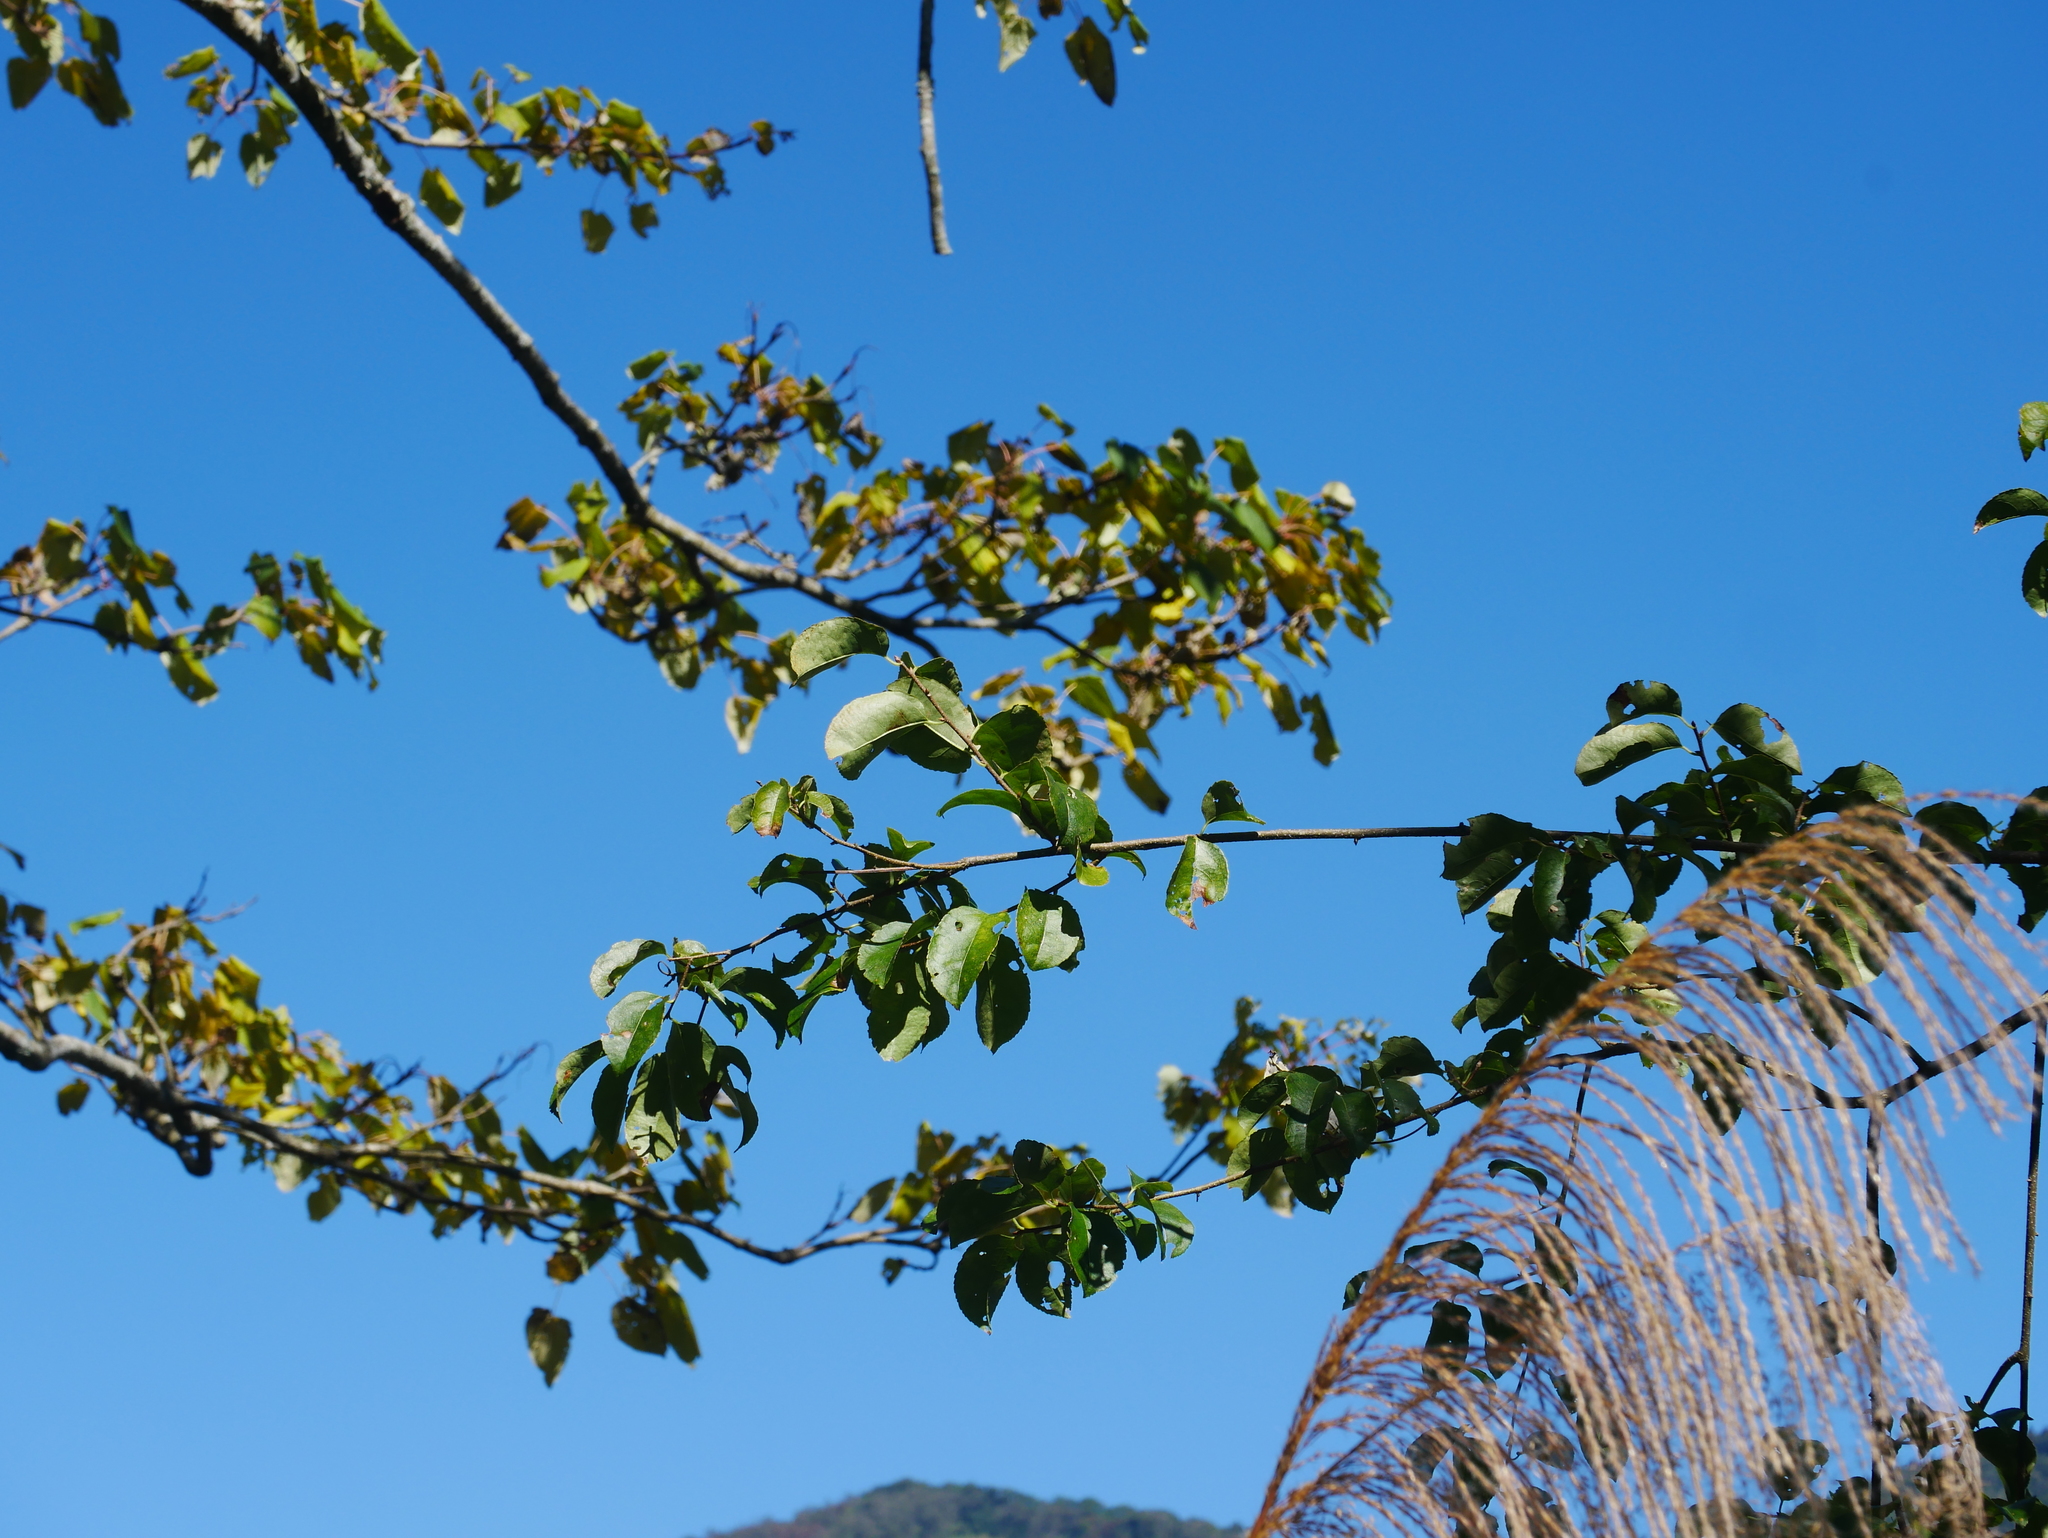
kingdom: Plantae
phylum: Tracheophyta
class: Magnoliopsida
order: Celastrales
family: Celastraceae
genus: Celastrus
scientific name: Celastrus paniculatus
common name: Oriental bittersweet; staff vine
